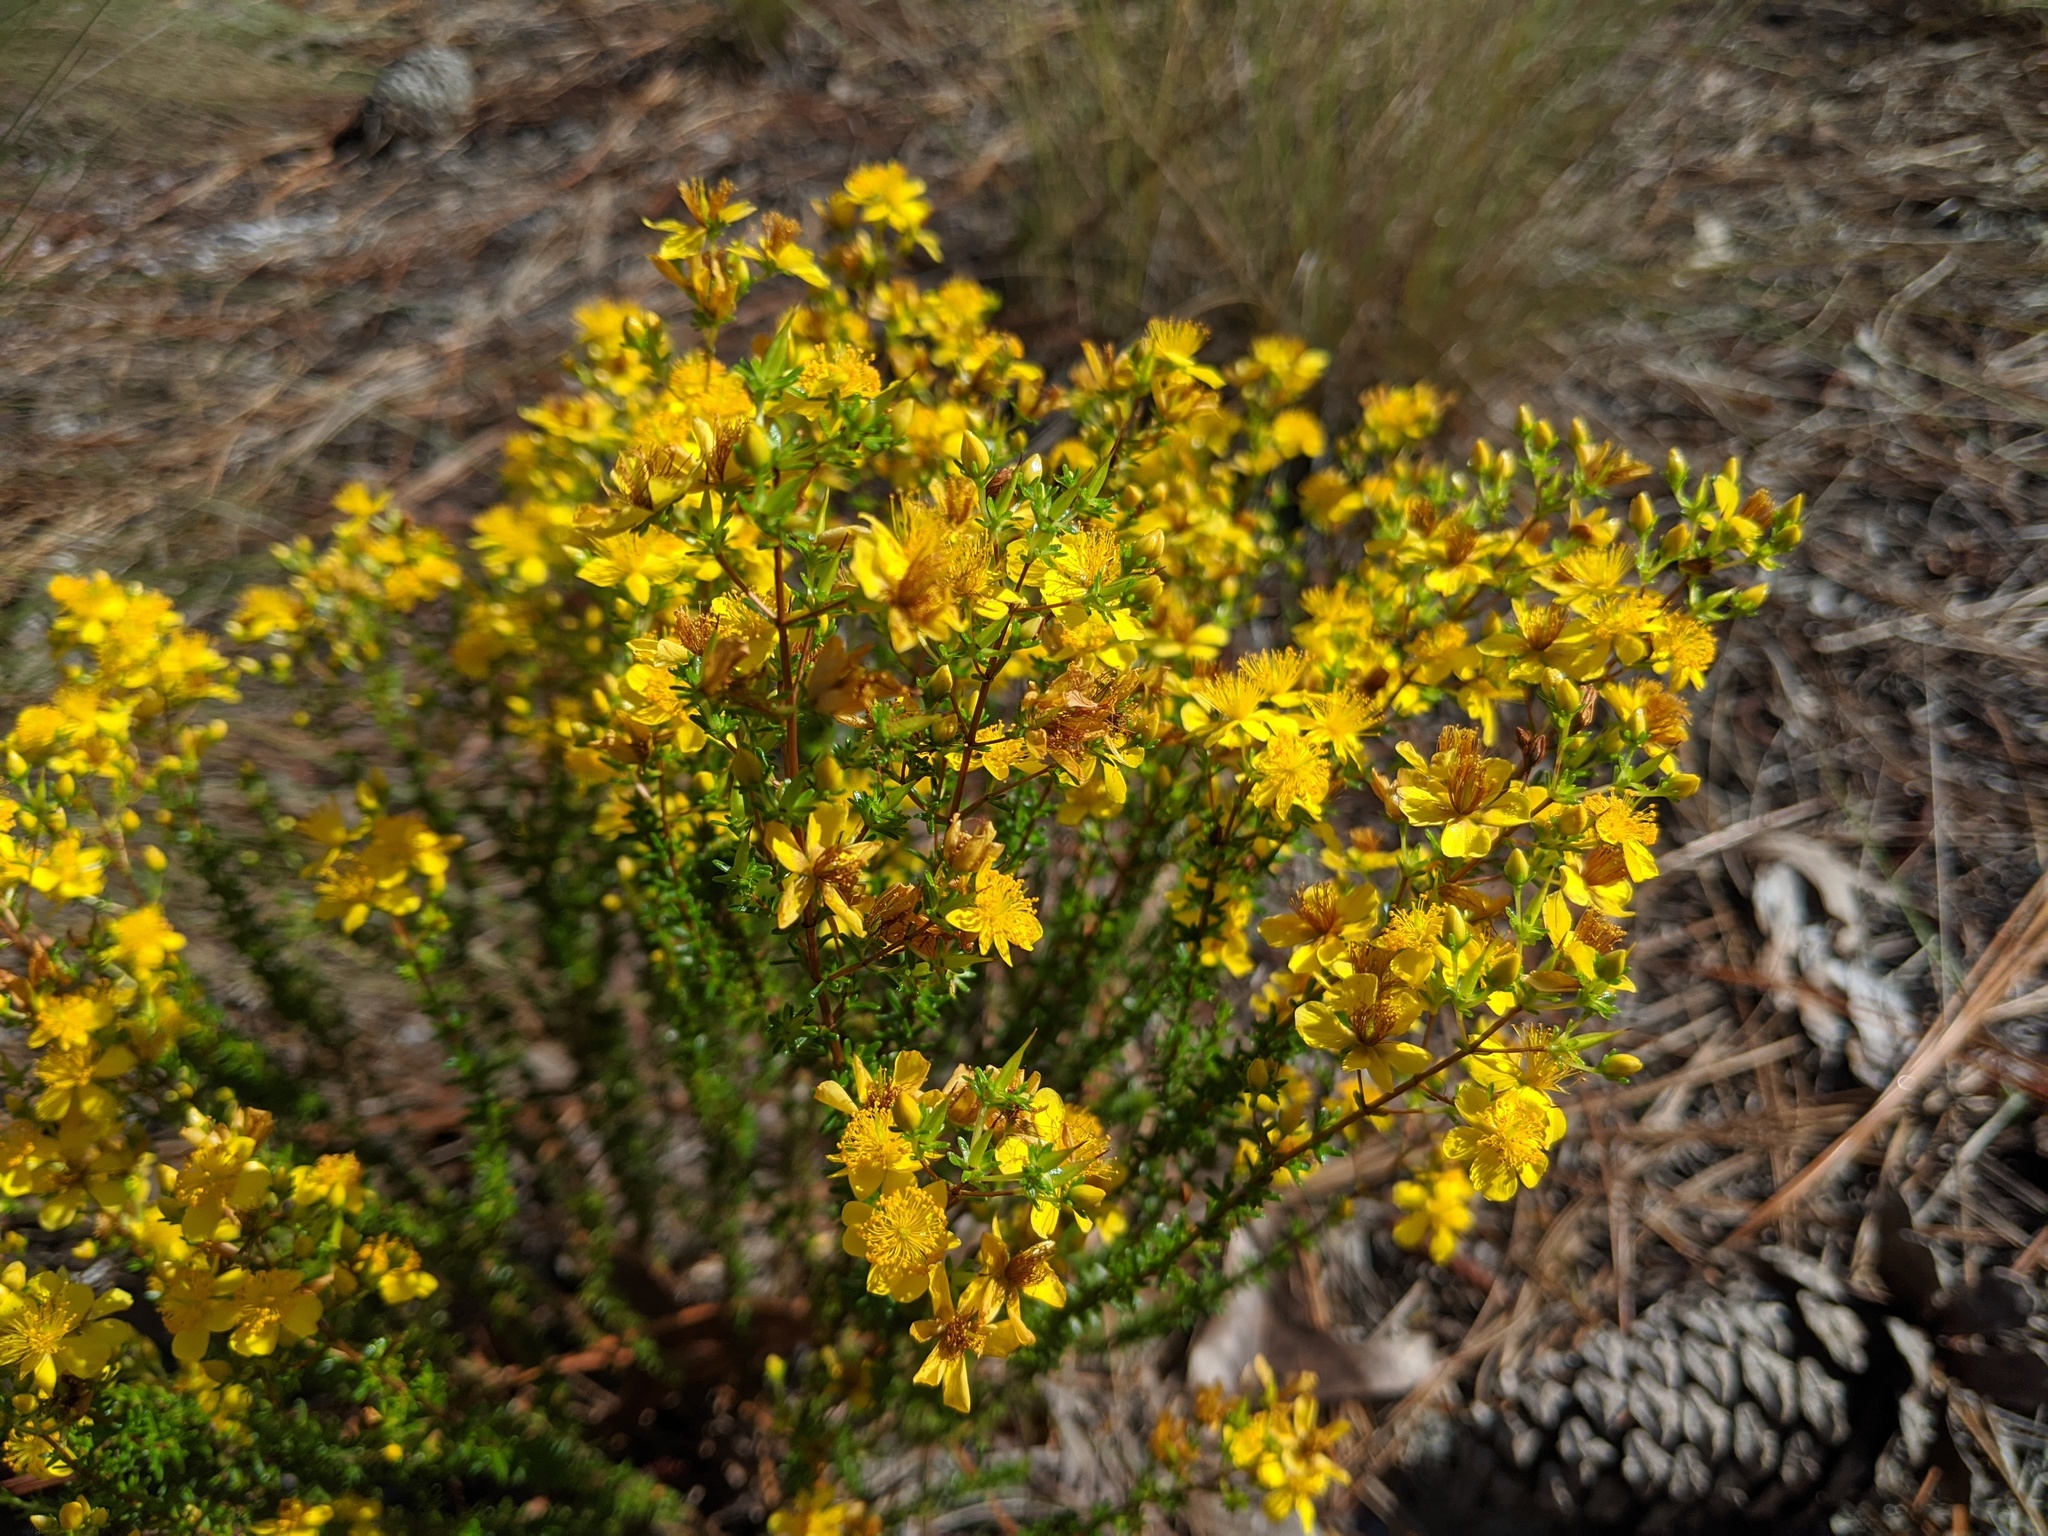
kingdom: Plantae
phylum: Tracheophyta
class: Magnoliopsida
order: Malpighiales
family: Hypericaceae
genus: Hypericum
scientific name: Hypericum tenuifolium
